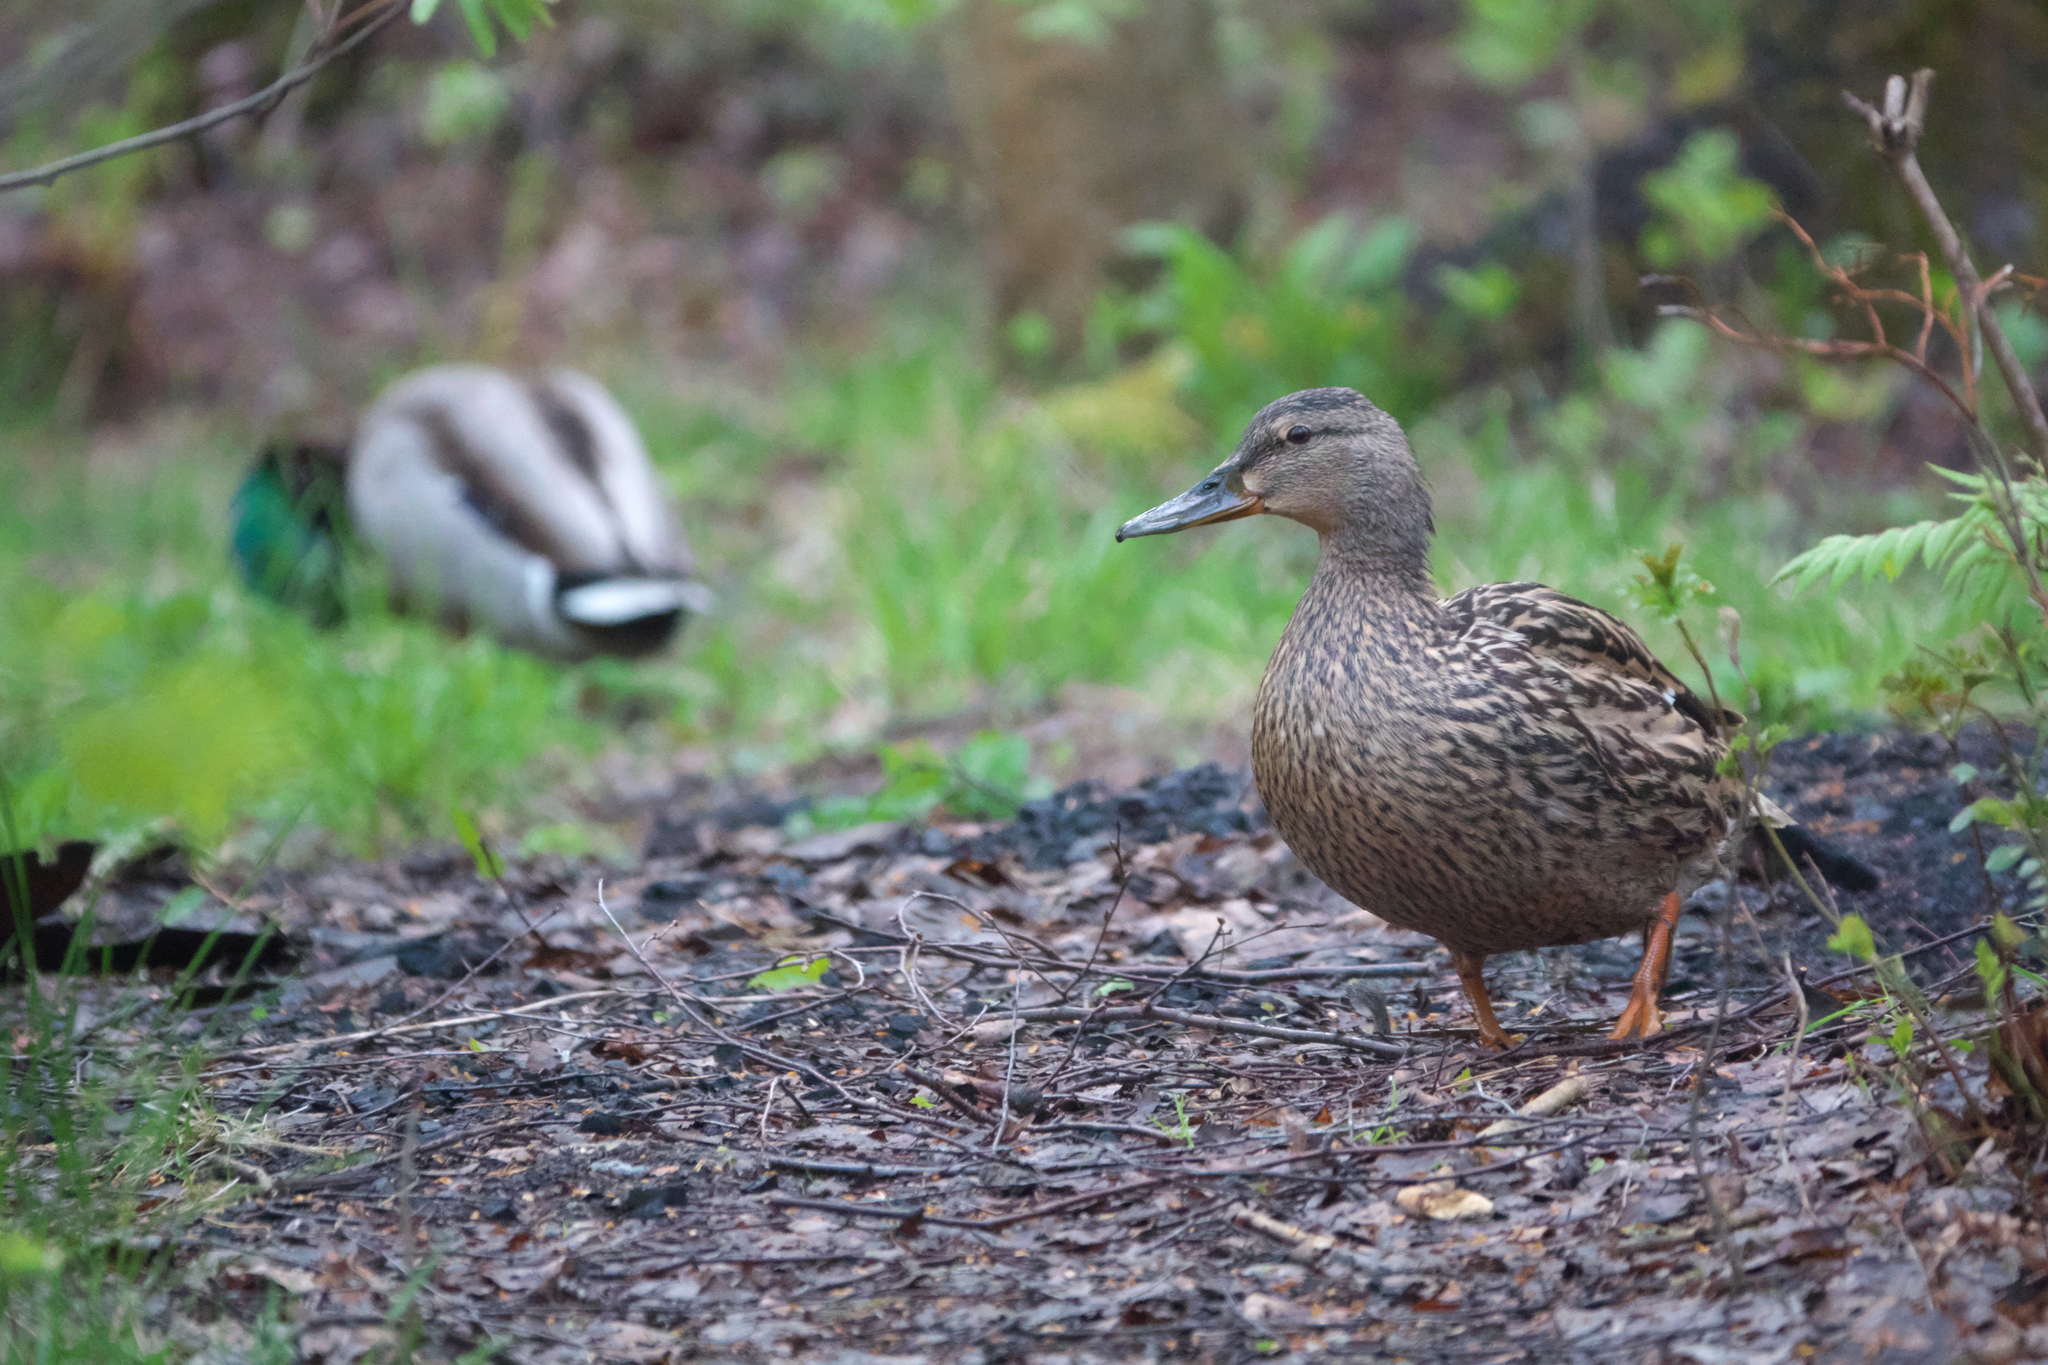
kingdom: Animalia
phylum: Chordata
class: Aves
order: Anseriformes
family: Anatidae
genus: Anas
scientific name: Anas platyrhynchos
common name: Mallard
